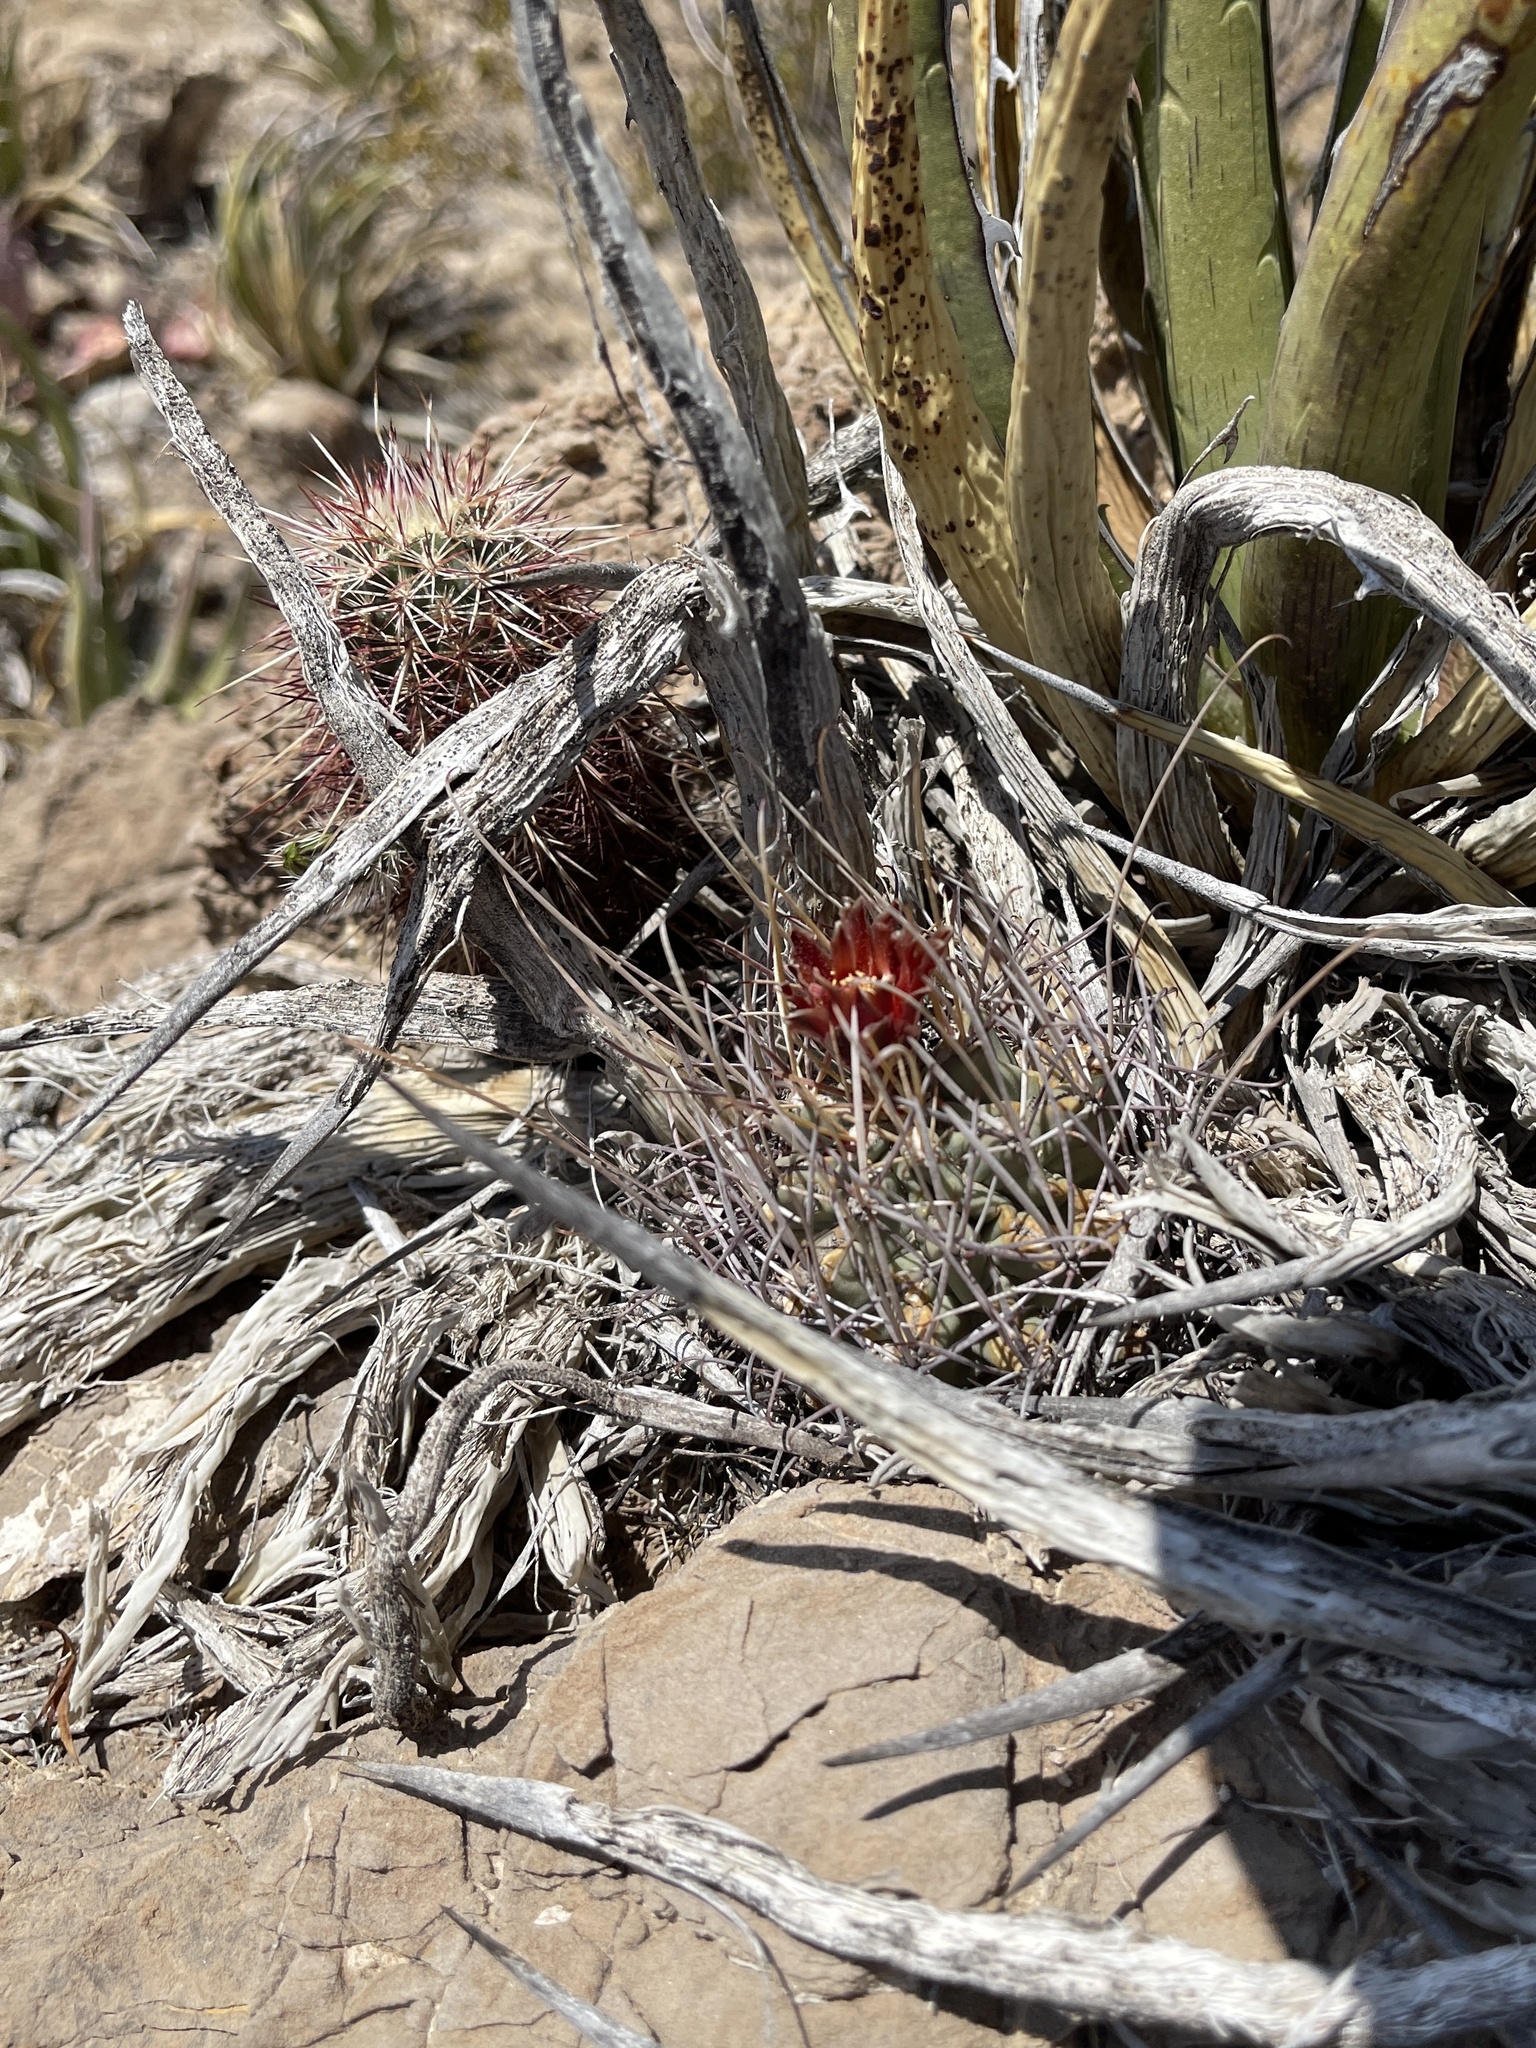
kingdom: Plantae
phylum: Tracheophyta
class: Magnoliopsida
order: Caryophyllales
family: Cactaceae
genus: Ferocactus
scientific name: Ferocactus uncinatus
